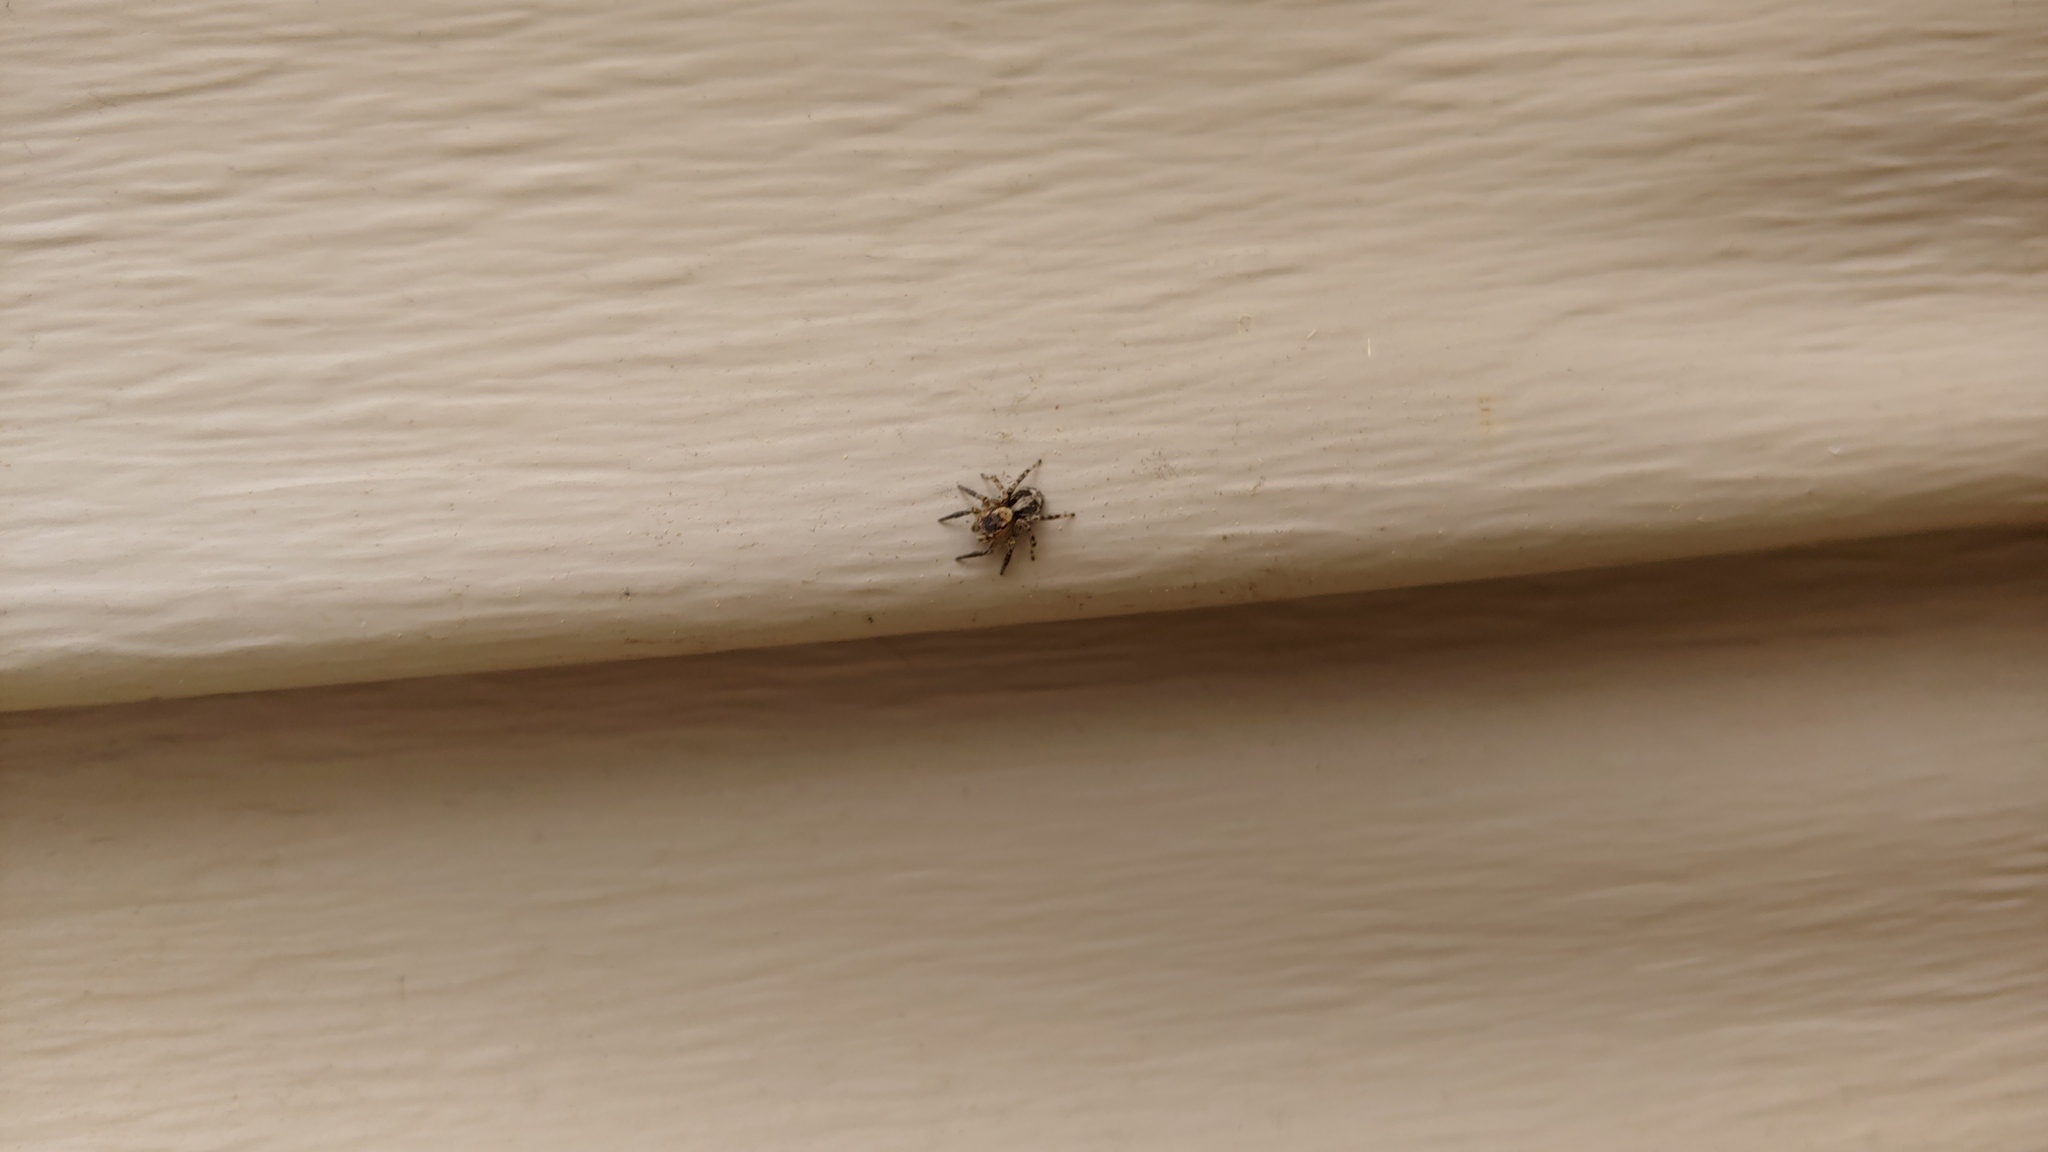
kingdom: Animalia
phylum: Arthropoda
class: Arachnida
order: Araneae
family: Salticidae
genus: Naphrys
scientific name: Naphrys pulex
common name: Flea jumping spider
